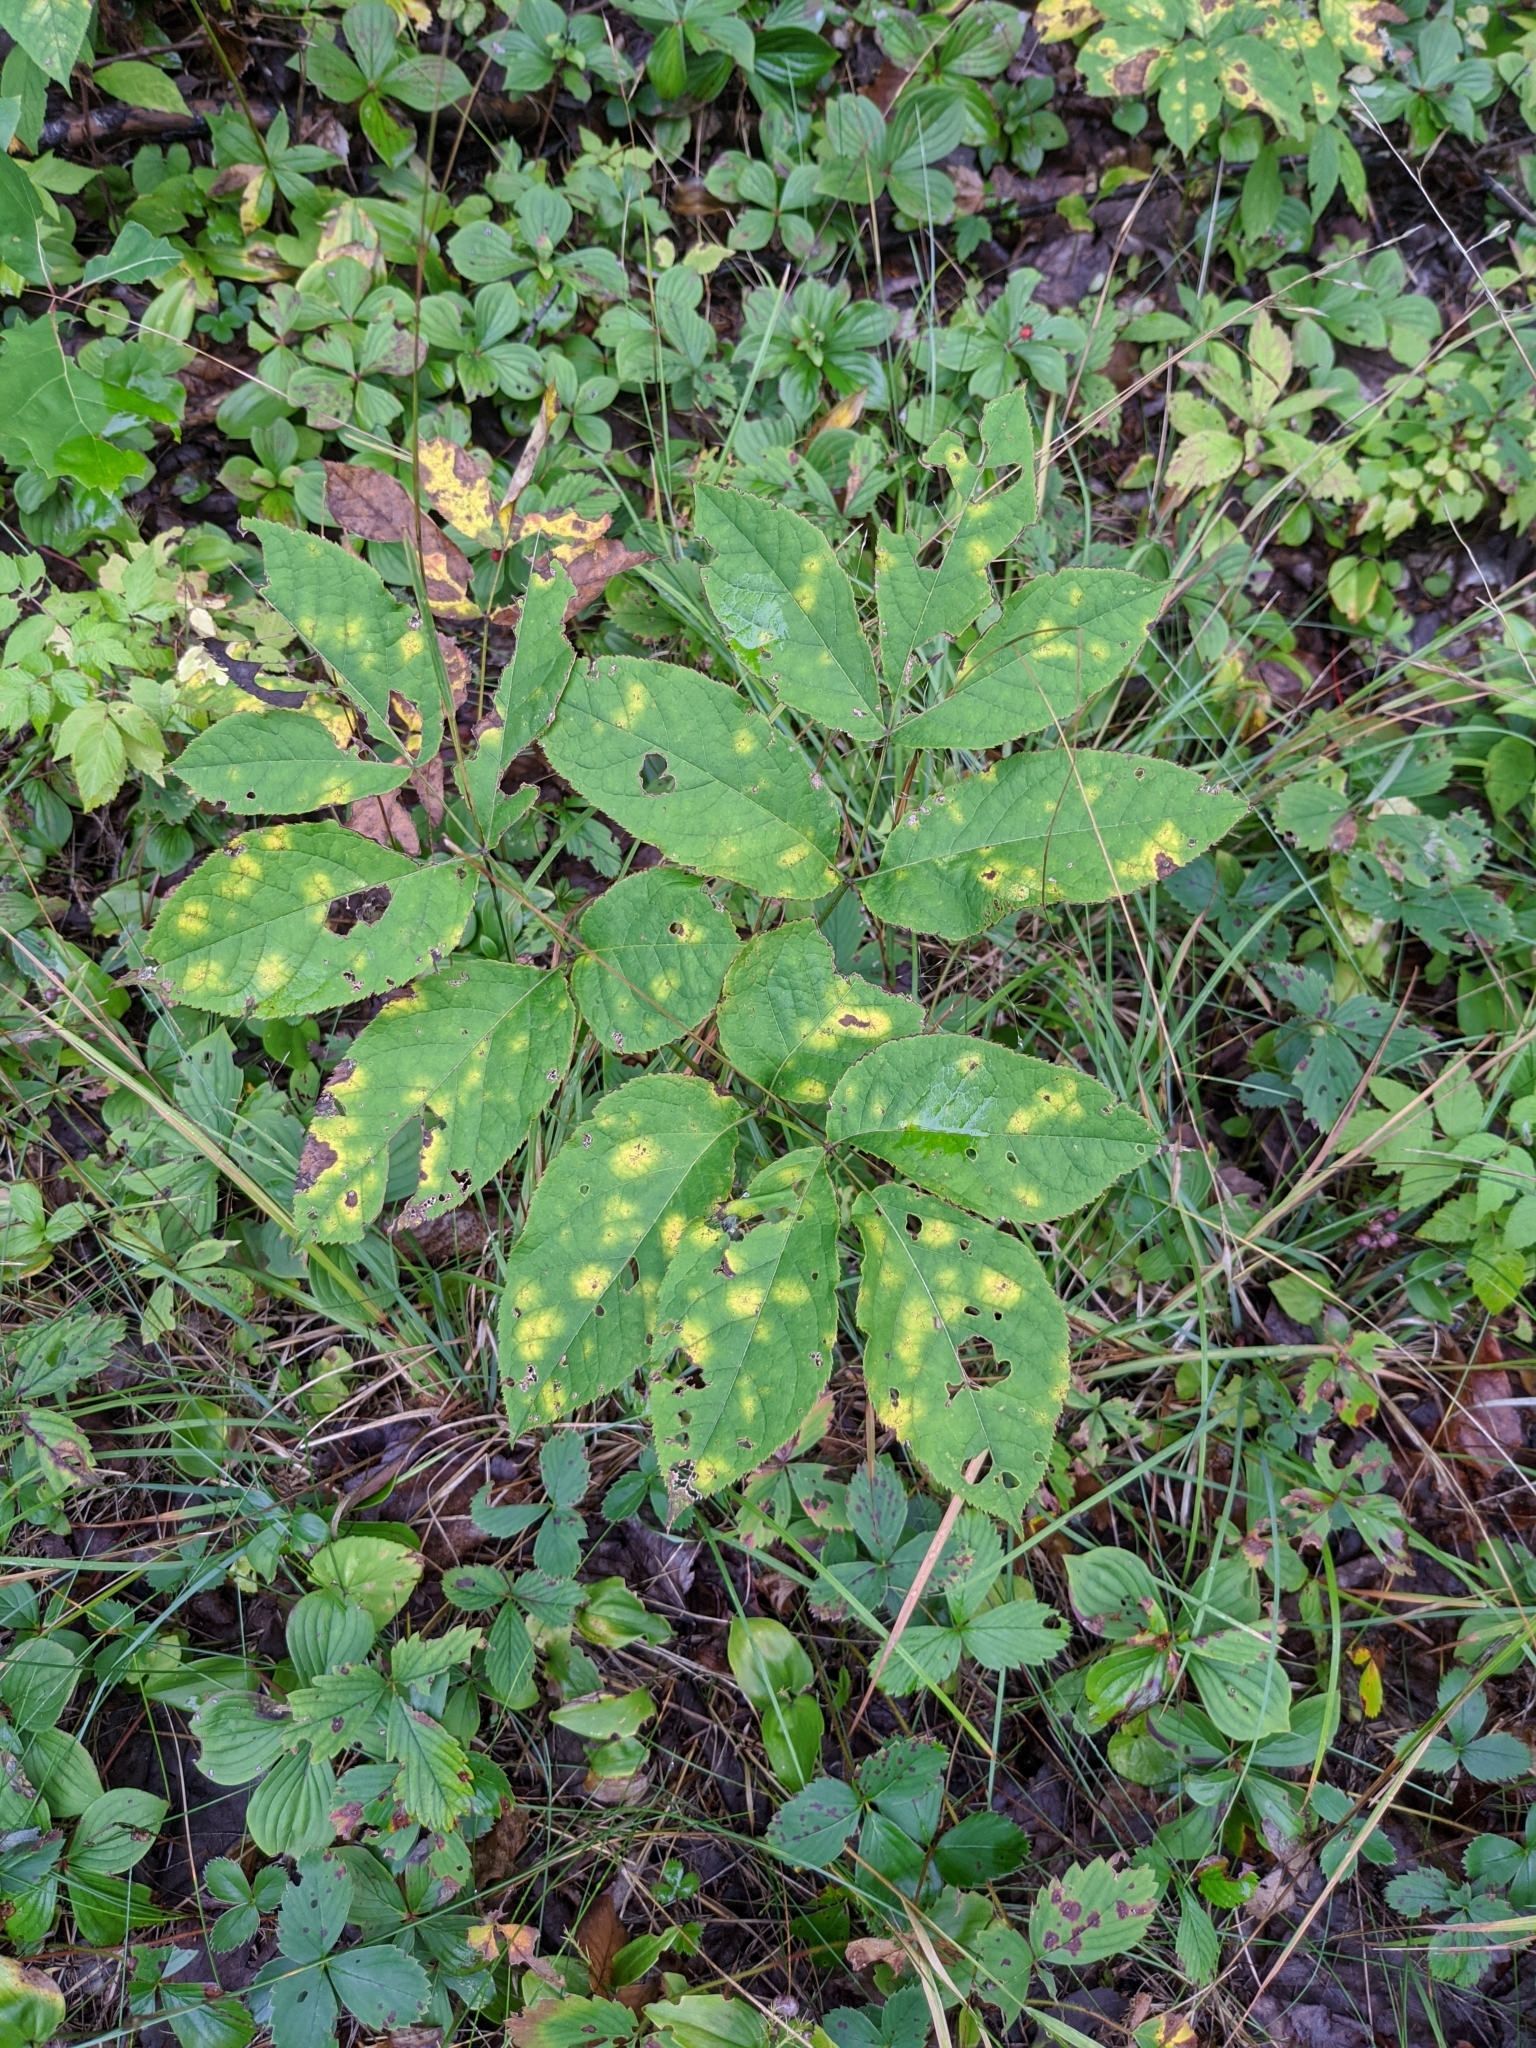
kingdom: Plantae
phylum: Tracheophyta
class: Magnoliopsida
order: Apiales
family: Araliaceae
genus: Aralia
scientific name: Aralia nudicaulis
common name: Wild sarsaparilla
